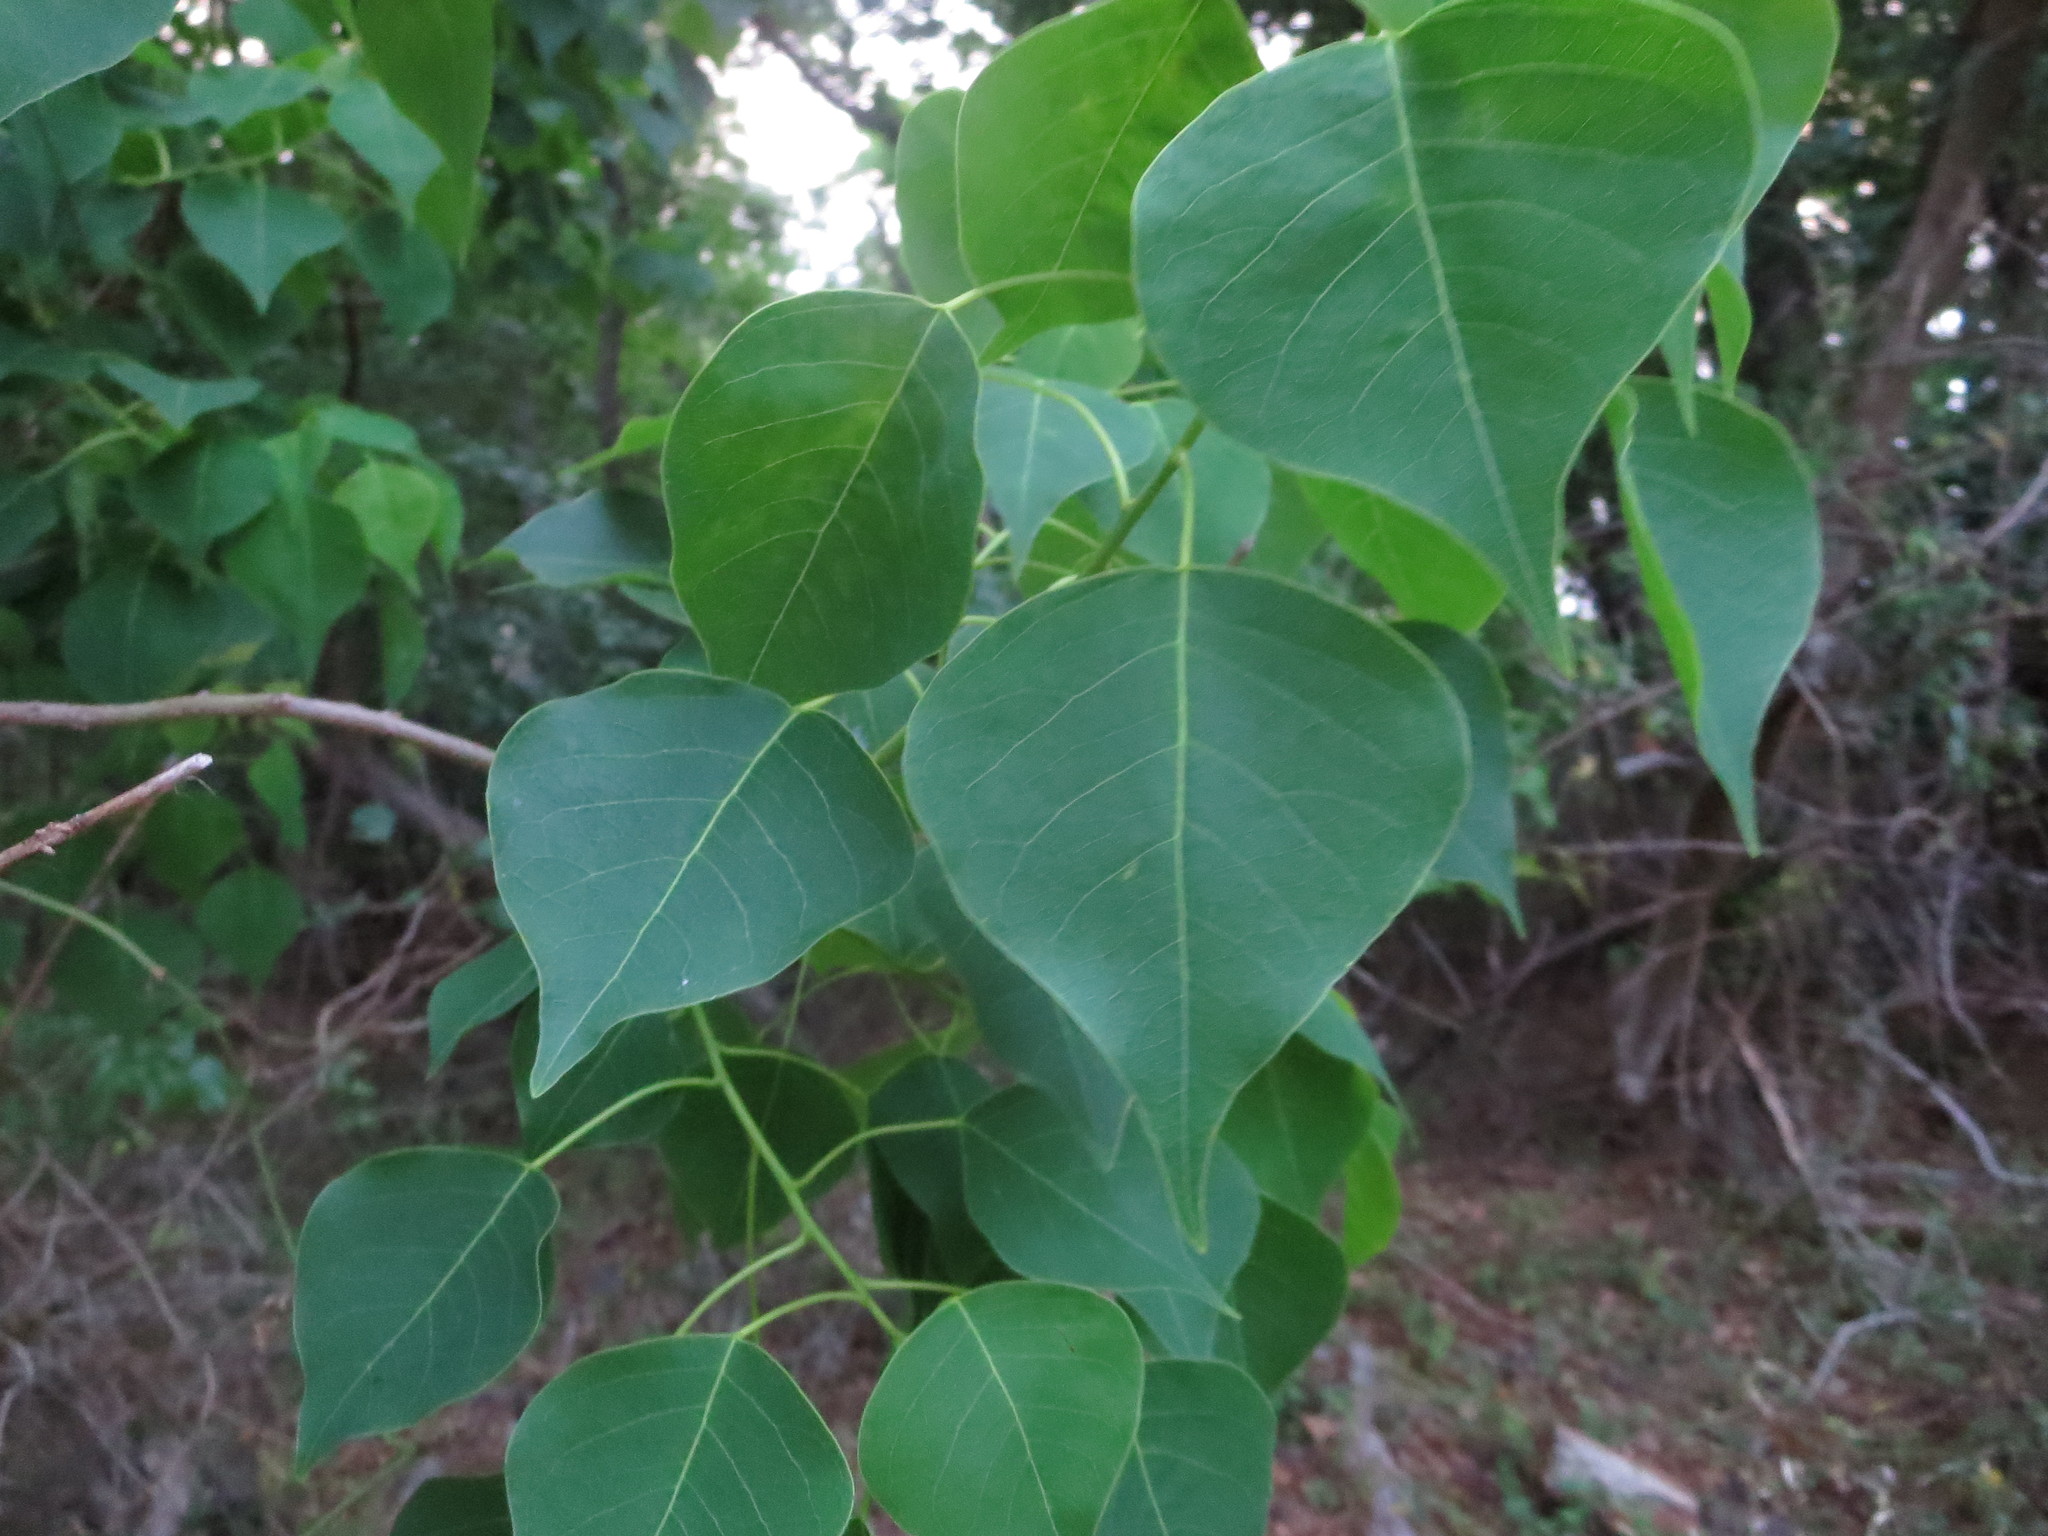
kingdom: Plantae
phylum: Tracheophyta
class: Magnoliopsida
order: Malpighiales
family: Euphorbiaceae
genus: Triadica
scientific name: Triadica sebifera
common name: Chinese tallow
